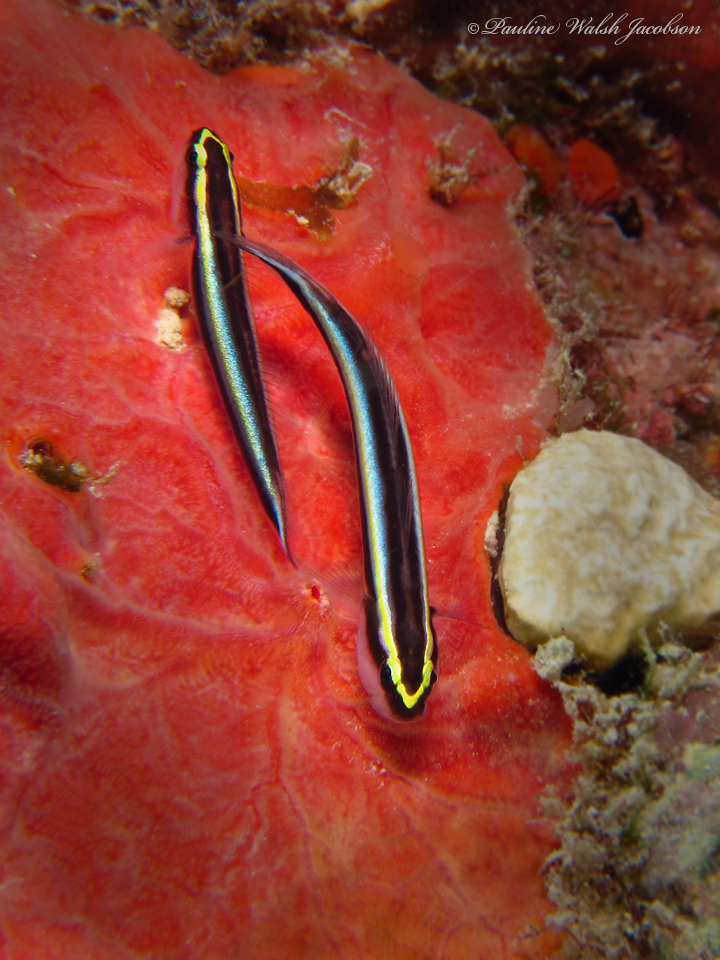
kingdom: Animalia
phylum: Chordata
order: Perciformes
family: Gobiidae
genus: Elacatinus
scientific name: Elacatinus evelynae
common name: Sharknose goby
